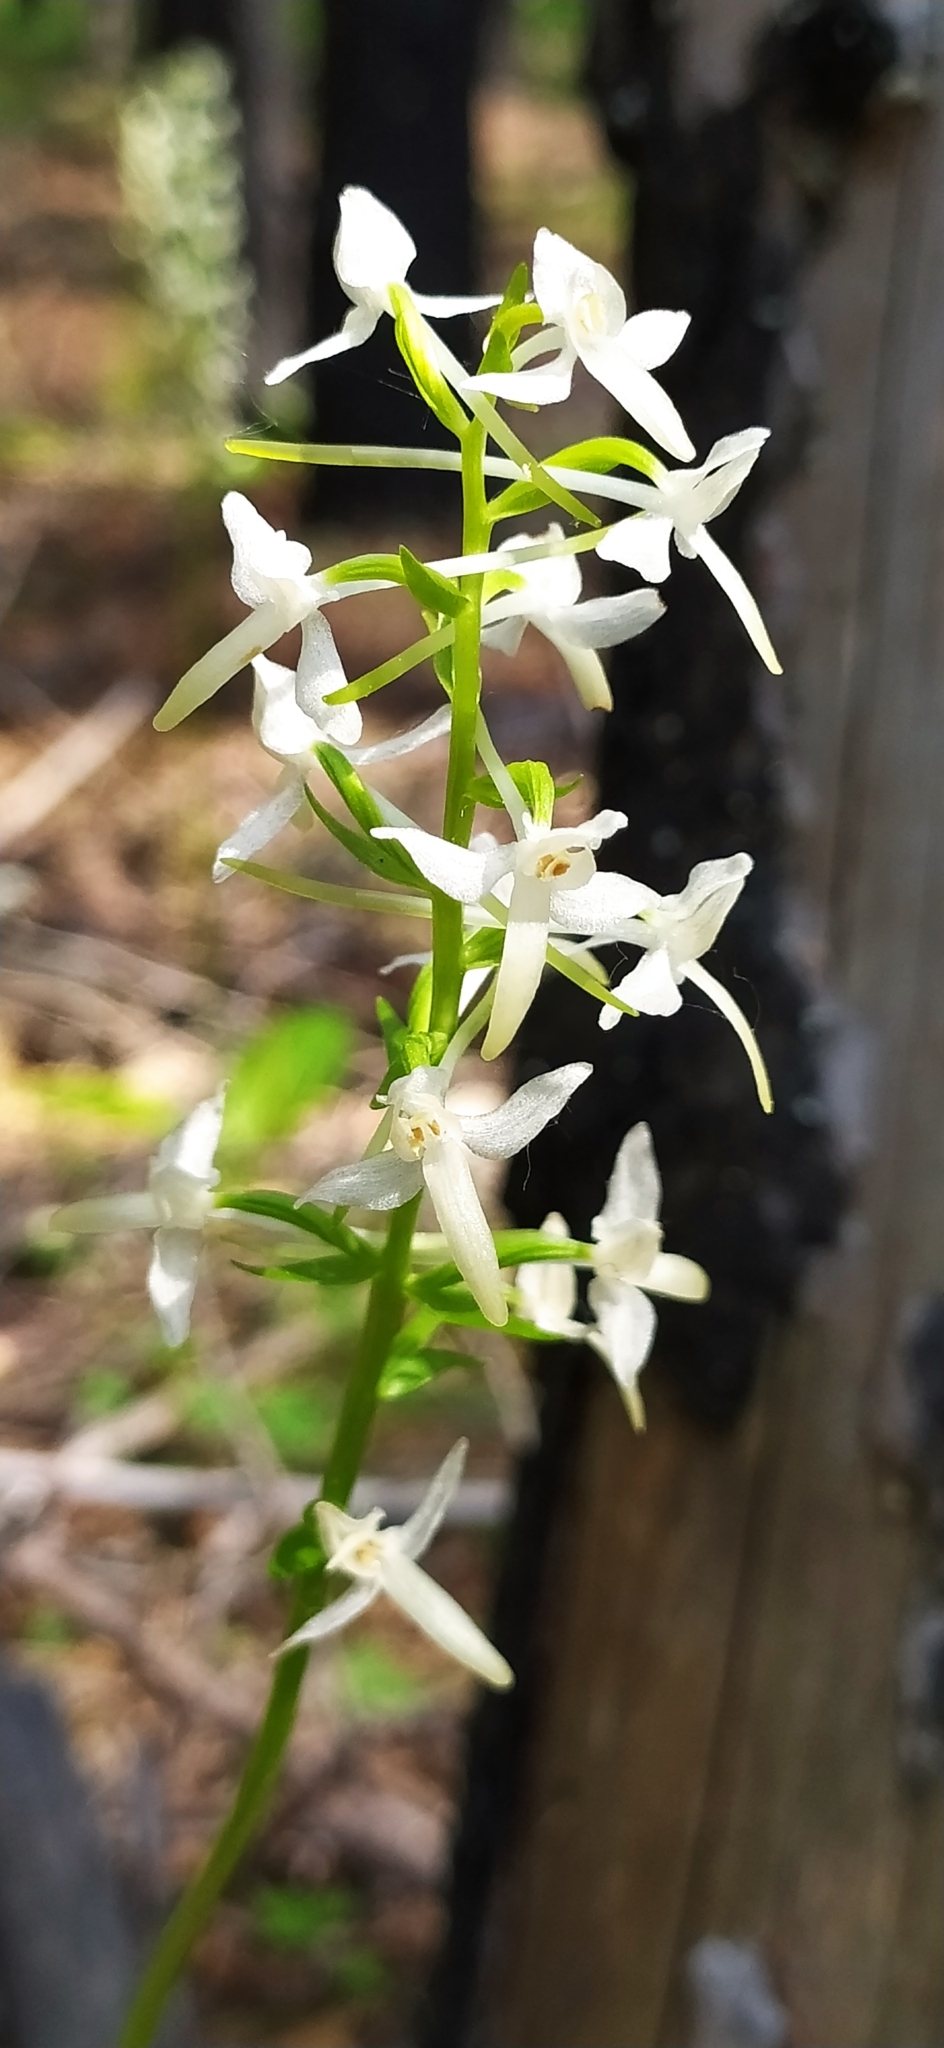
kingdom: Plantae
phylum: Tracheophyta
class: Liliopsida
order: Asparagales
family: Orchidaceae
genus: Platanthera
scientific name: Platanthera bifolia
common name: Lesser butterfly-orchid
